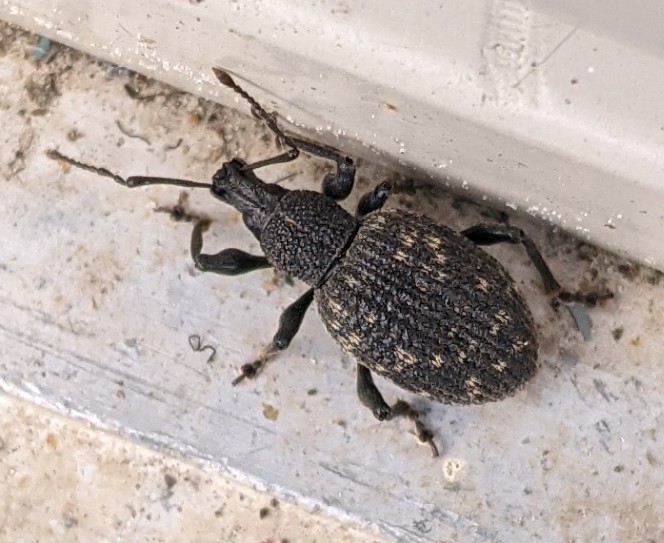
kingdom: Animalia
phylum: Arthropoda
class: Insecta
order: Coleoptera
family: Curculionidae
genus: Otiorhynchus
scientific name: Otiorhynchus sulcatus
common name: Black vine weevil
